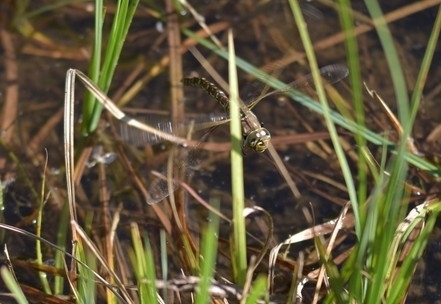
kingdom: Animalia
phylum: Arthropoda
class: Insecta
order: Odonata
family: Aeshnidae
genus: Aeshna
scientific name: Aeshna juncea
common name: Moorland hawker
